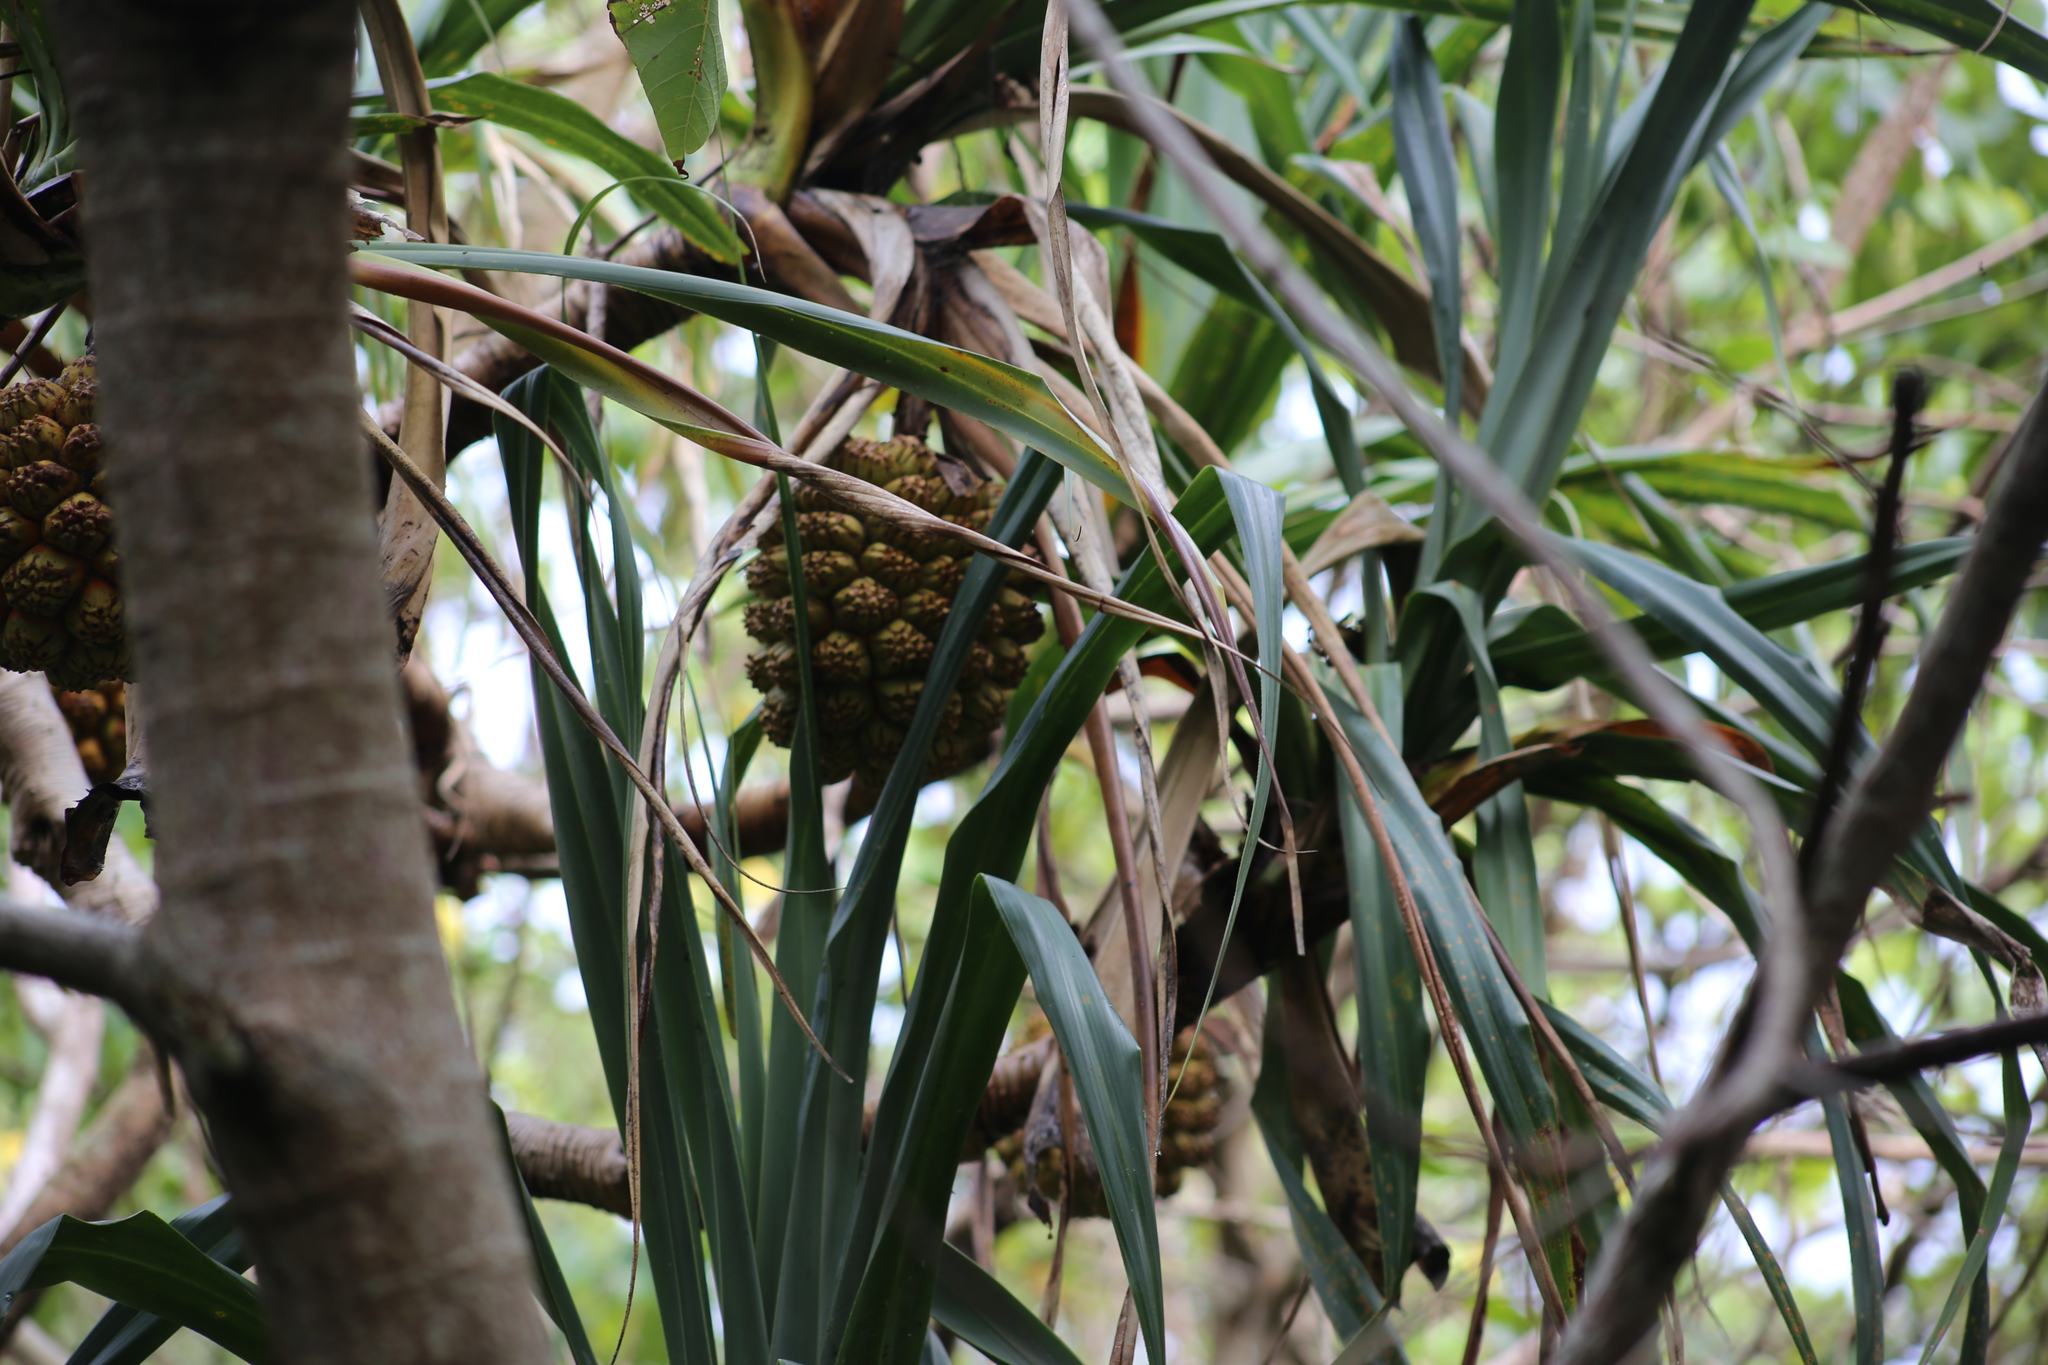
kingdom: Plantae
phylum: Tracheophyta
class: Liliopsida
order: Pandanales
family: Pandanaceae
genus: Pandanus
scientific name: Pandanus tectorius
